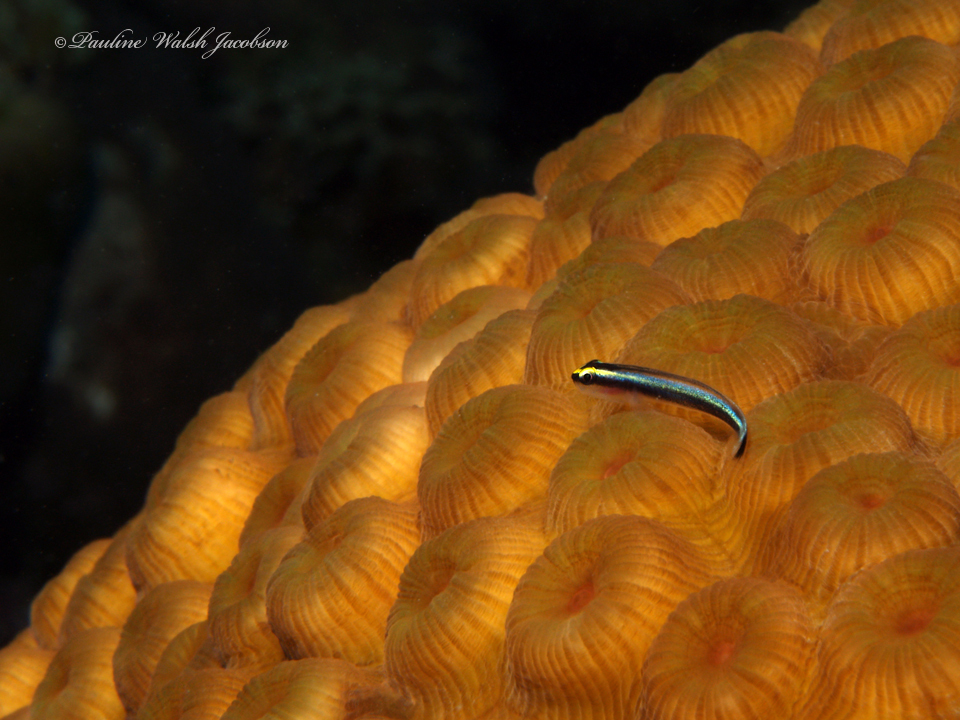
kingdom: Animalia
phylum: Chordata
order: Perciformes
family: Gobiidae
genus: Elacatinus
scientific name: Elacatinus evelynae
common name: Sharknose goby
